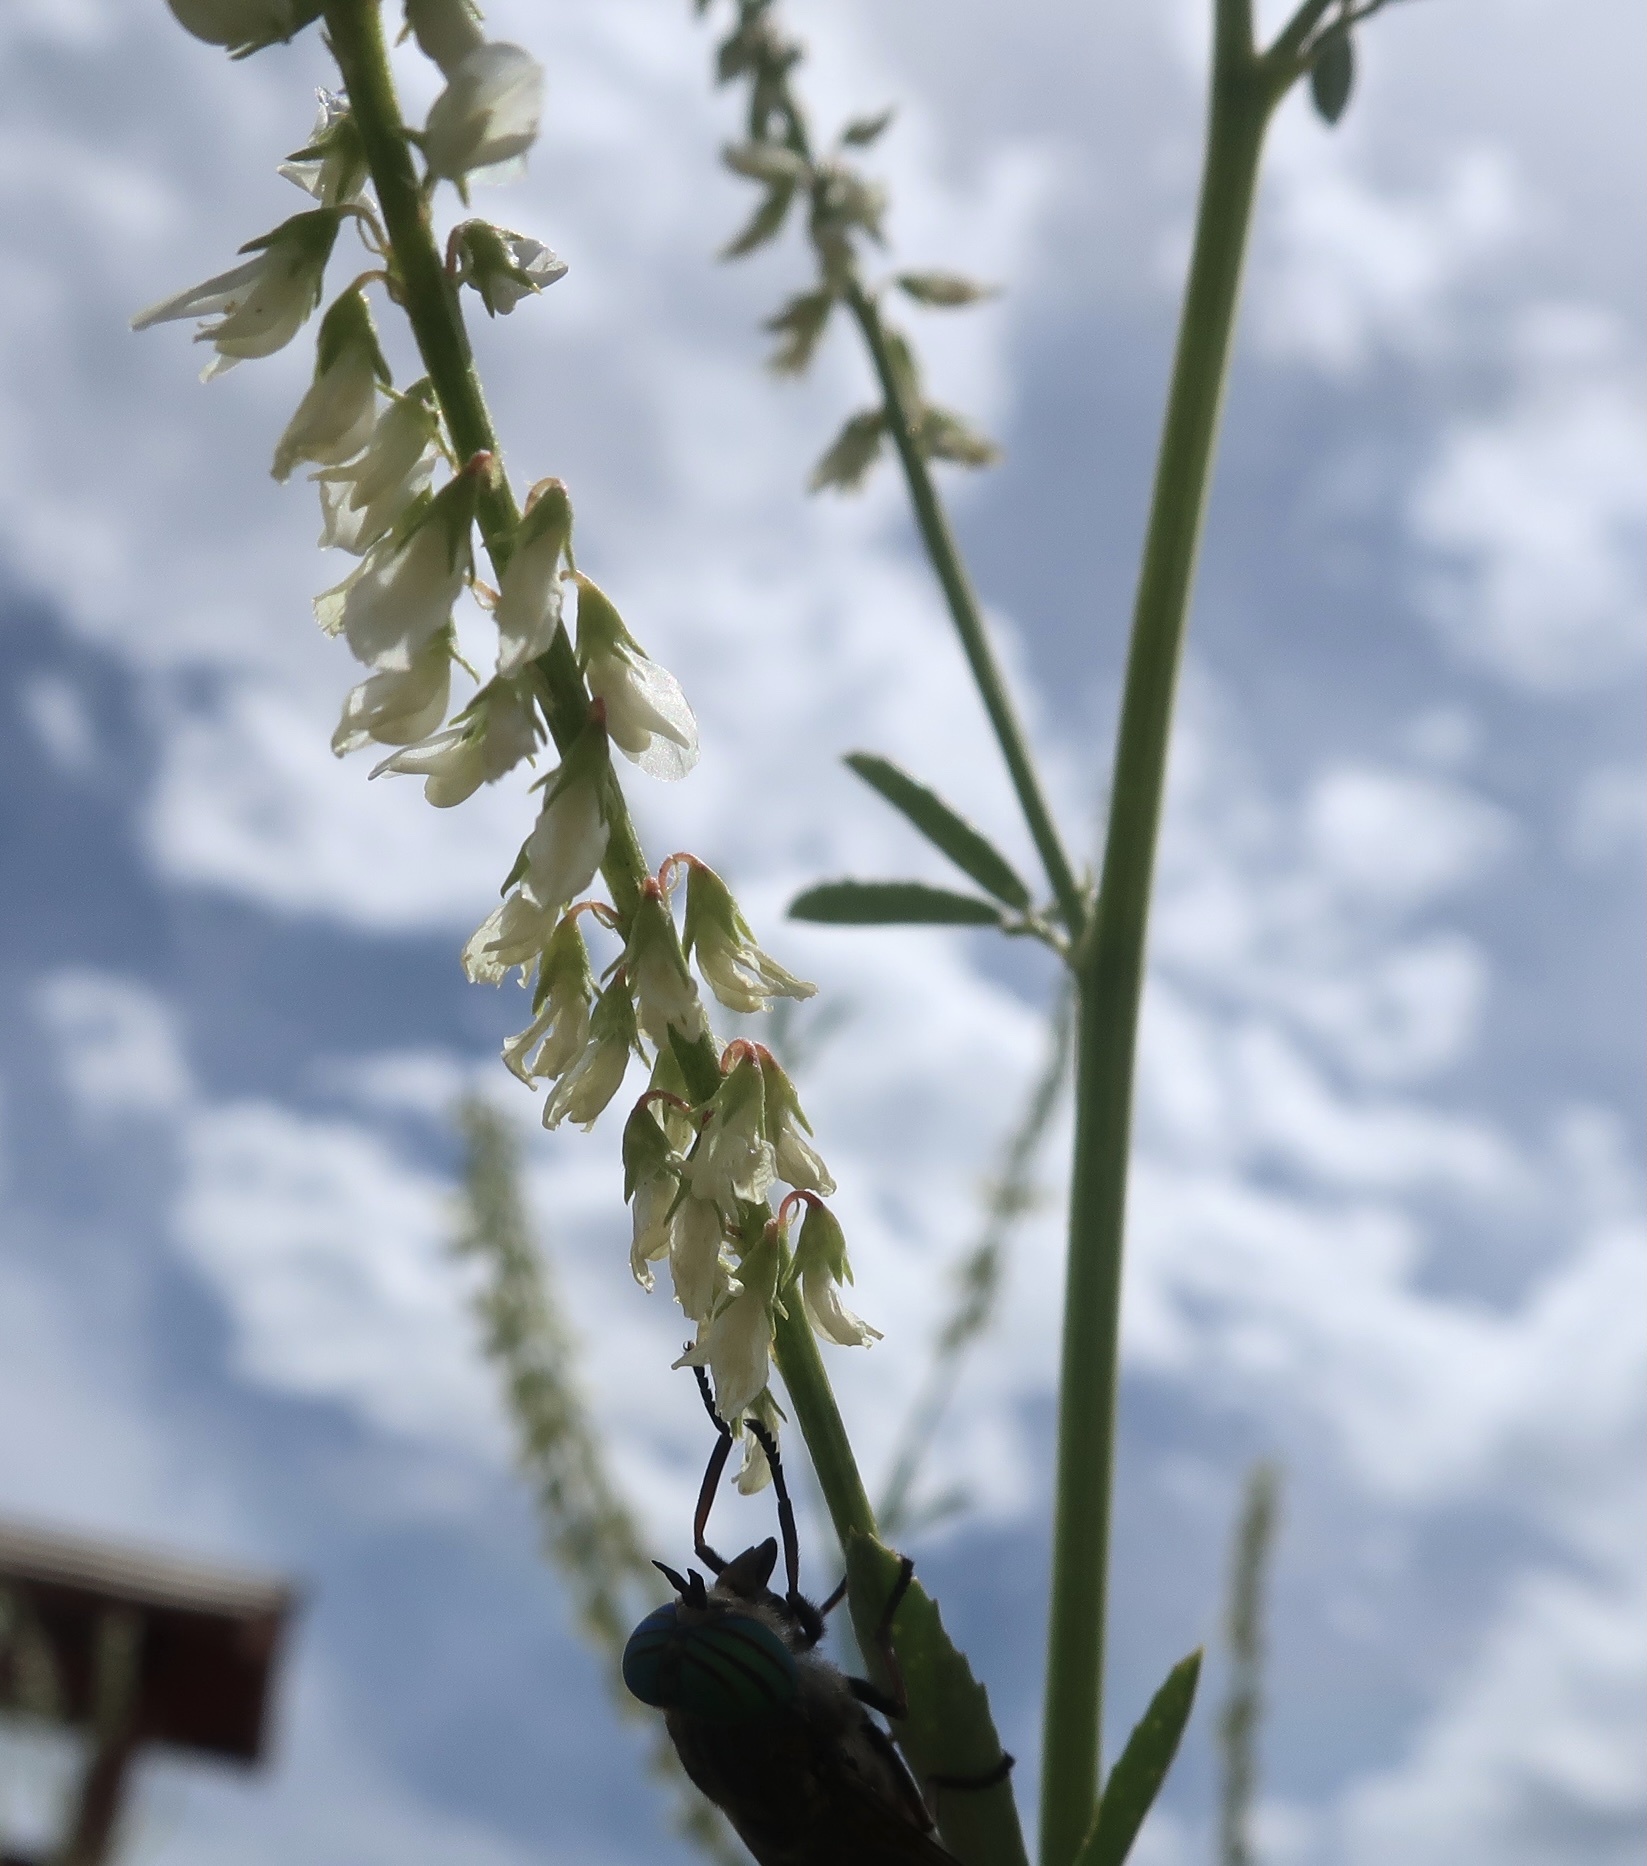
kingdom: Plantae
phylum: Tracheophyta
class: Magnoliopsida
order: Fabales
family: Fabaceae
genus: Melilotus
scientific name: Melilotus albus
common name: White melilot
